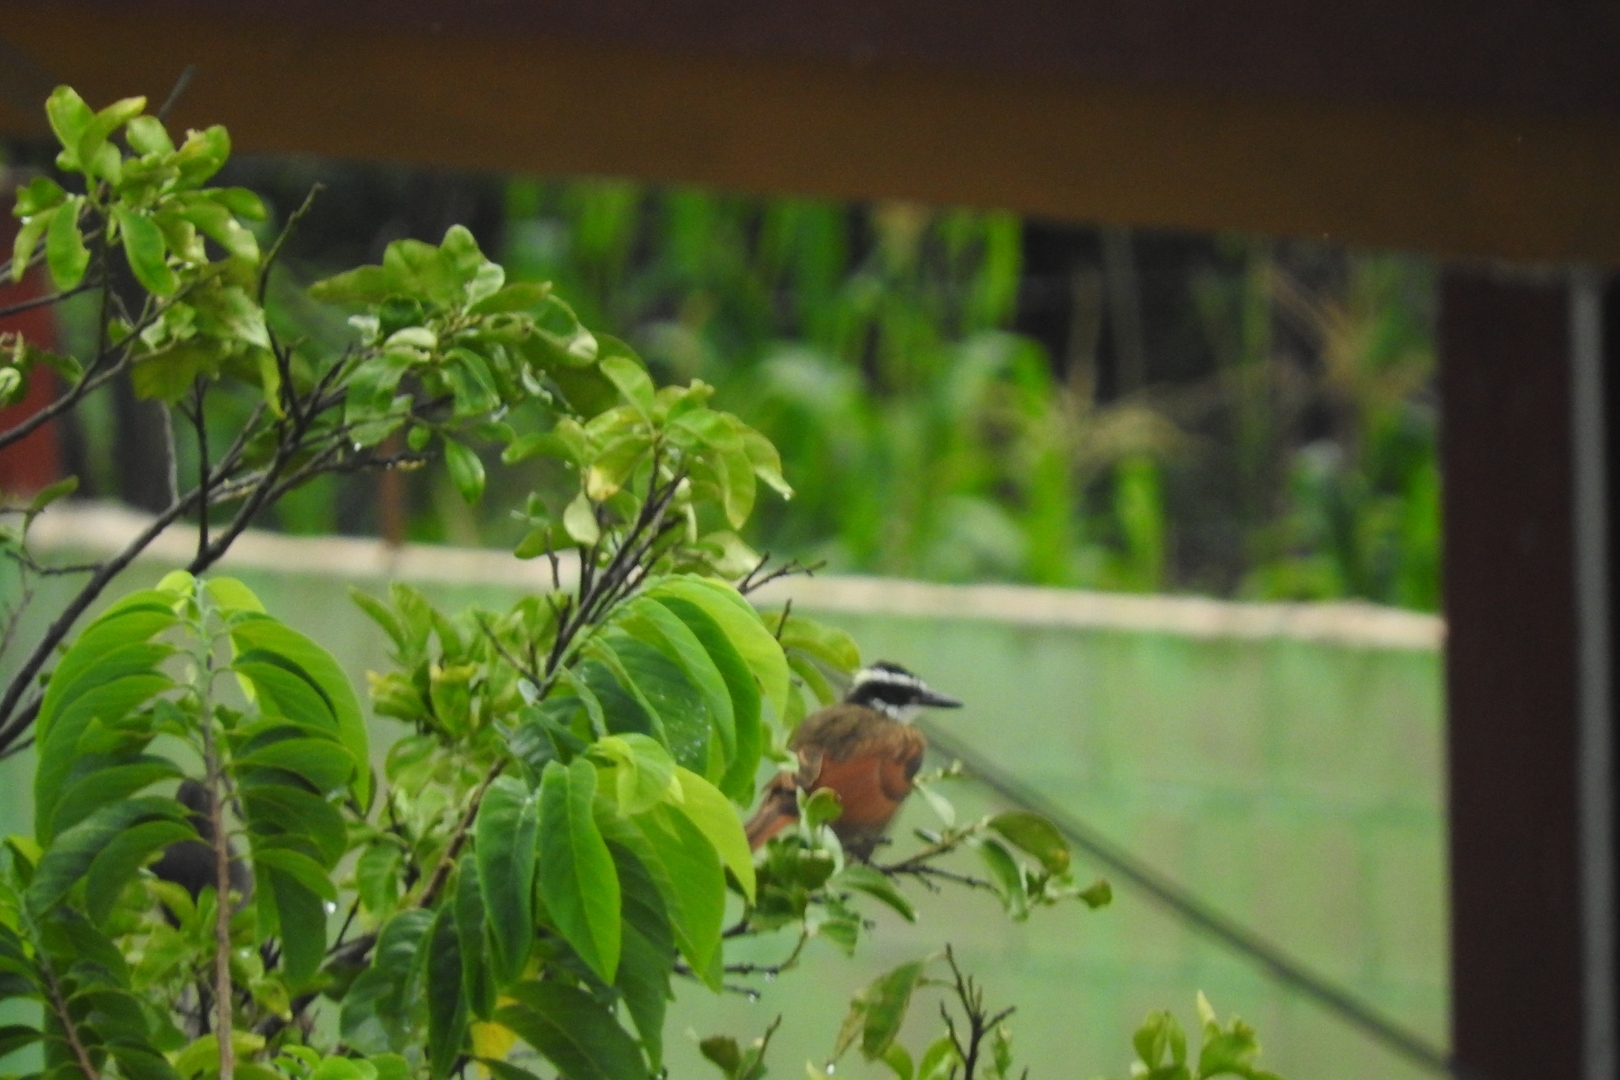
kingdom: Animalia
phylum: Chordata
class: Aves
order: Passeriformes
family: Tyrannidae
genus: Pitangus
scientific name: Pitangus sulphuratus
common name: Great kiskadee
